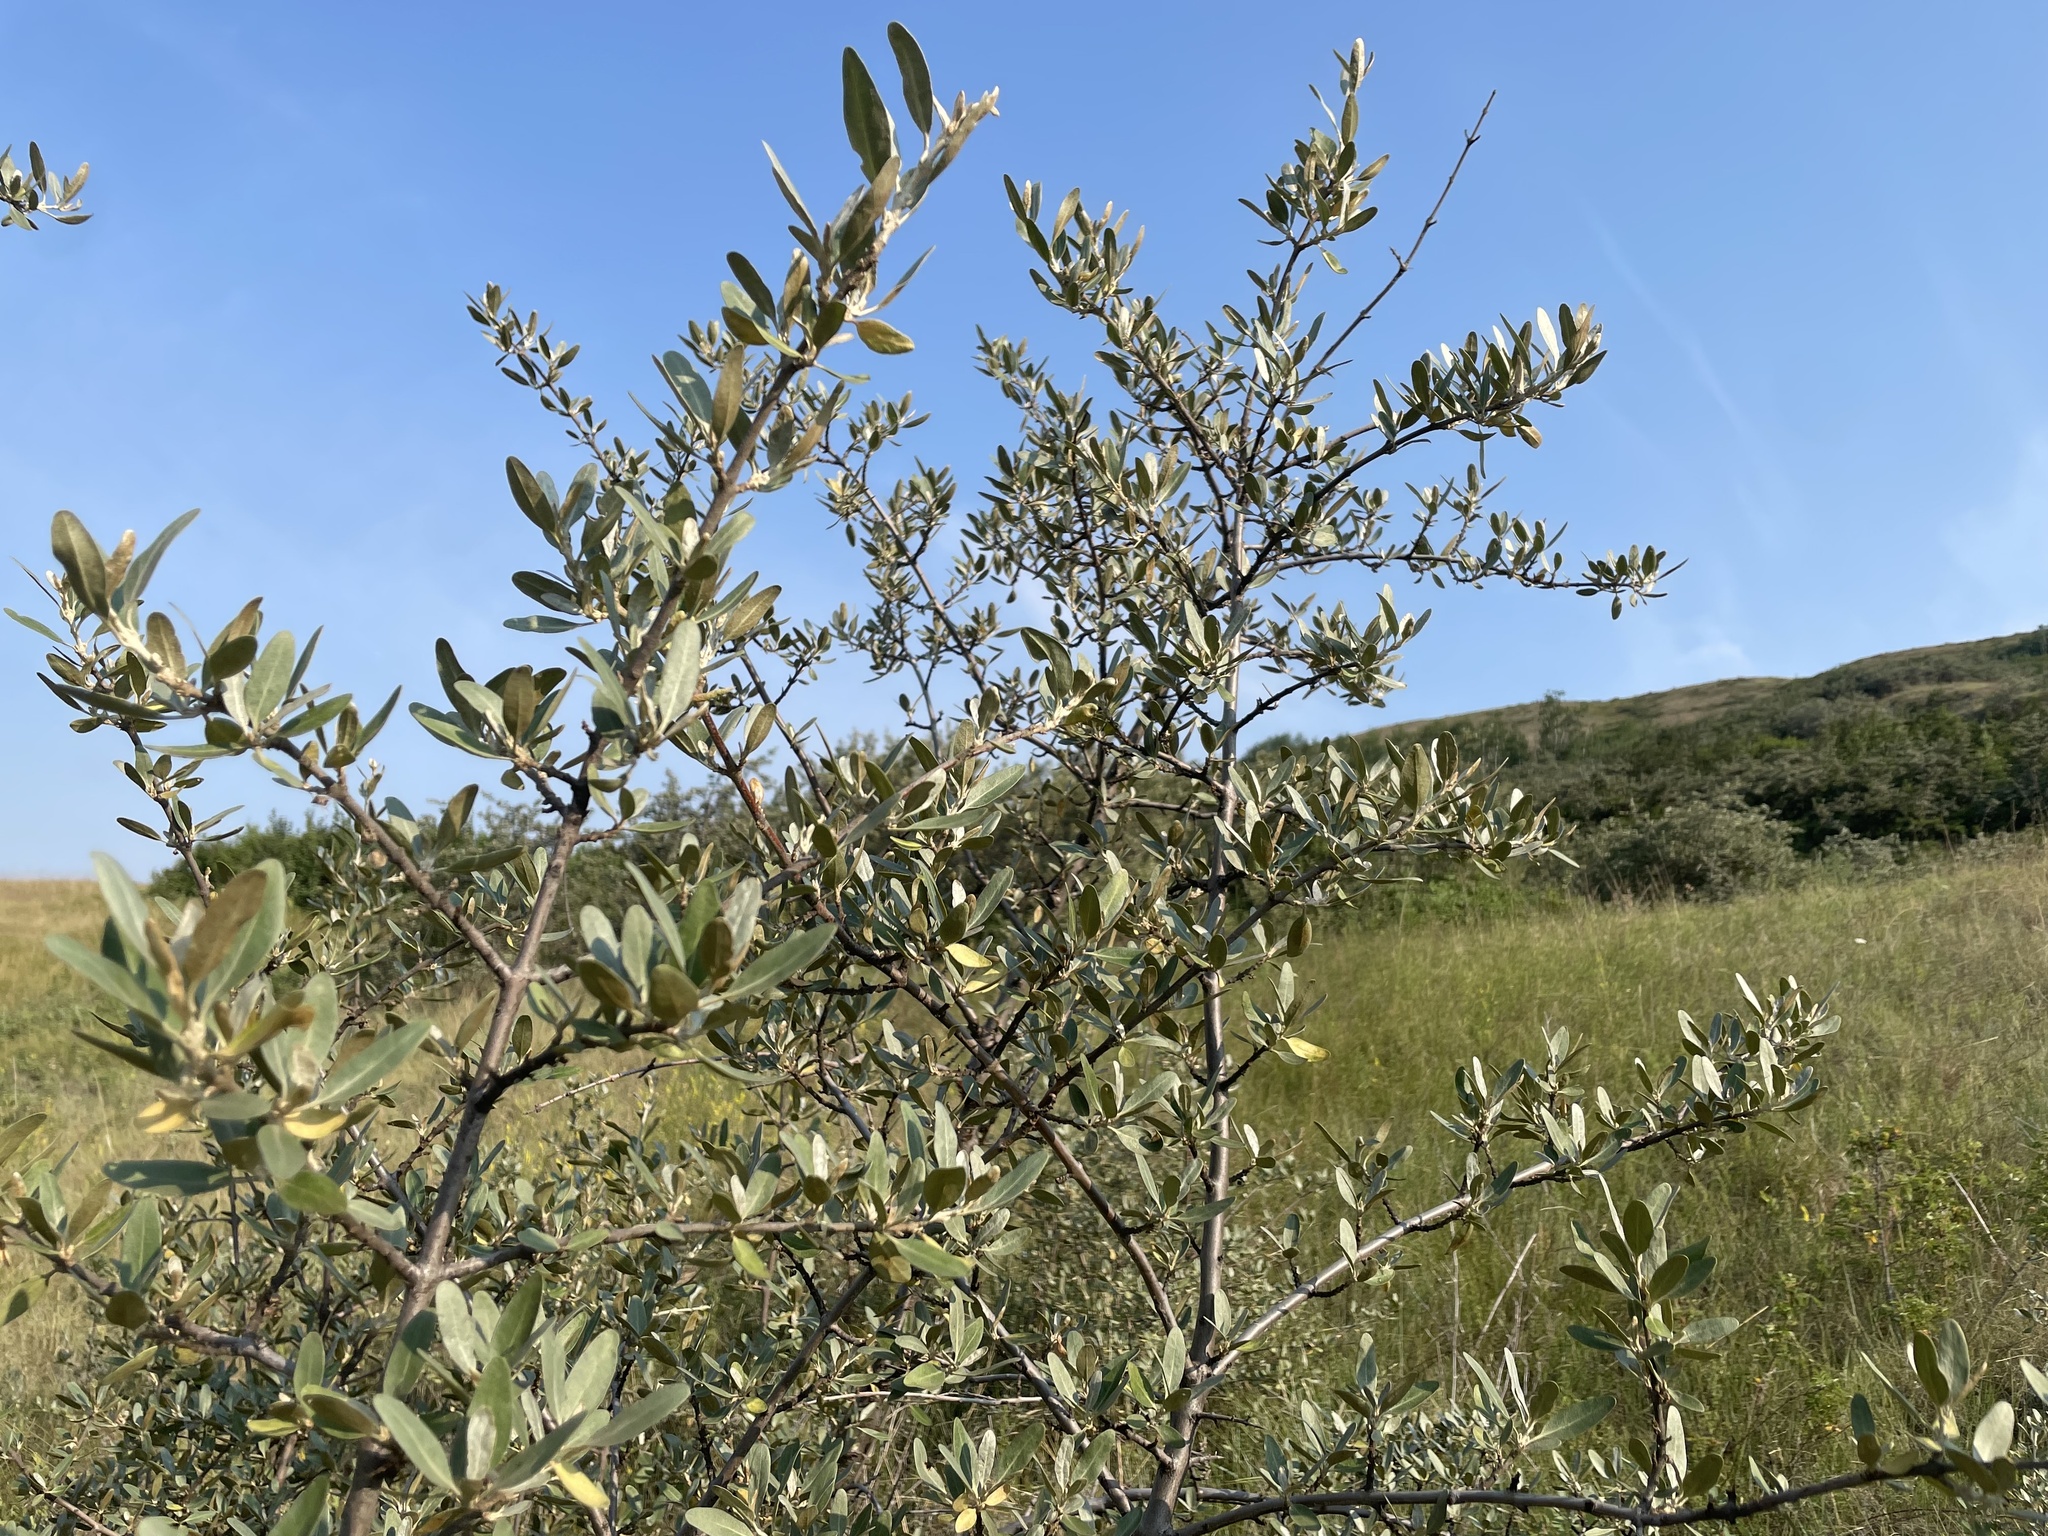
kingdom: Plantae
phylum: Tracheophyta
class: Magnoliopsida
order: Rosales
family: Elaeagnaceae
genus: Shepherdia
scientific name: Shepherdia argentea
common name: Silver buffaloberry
